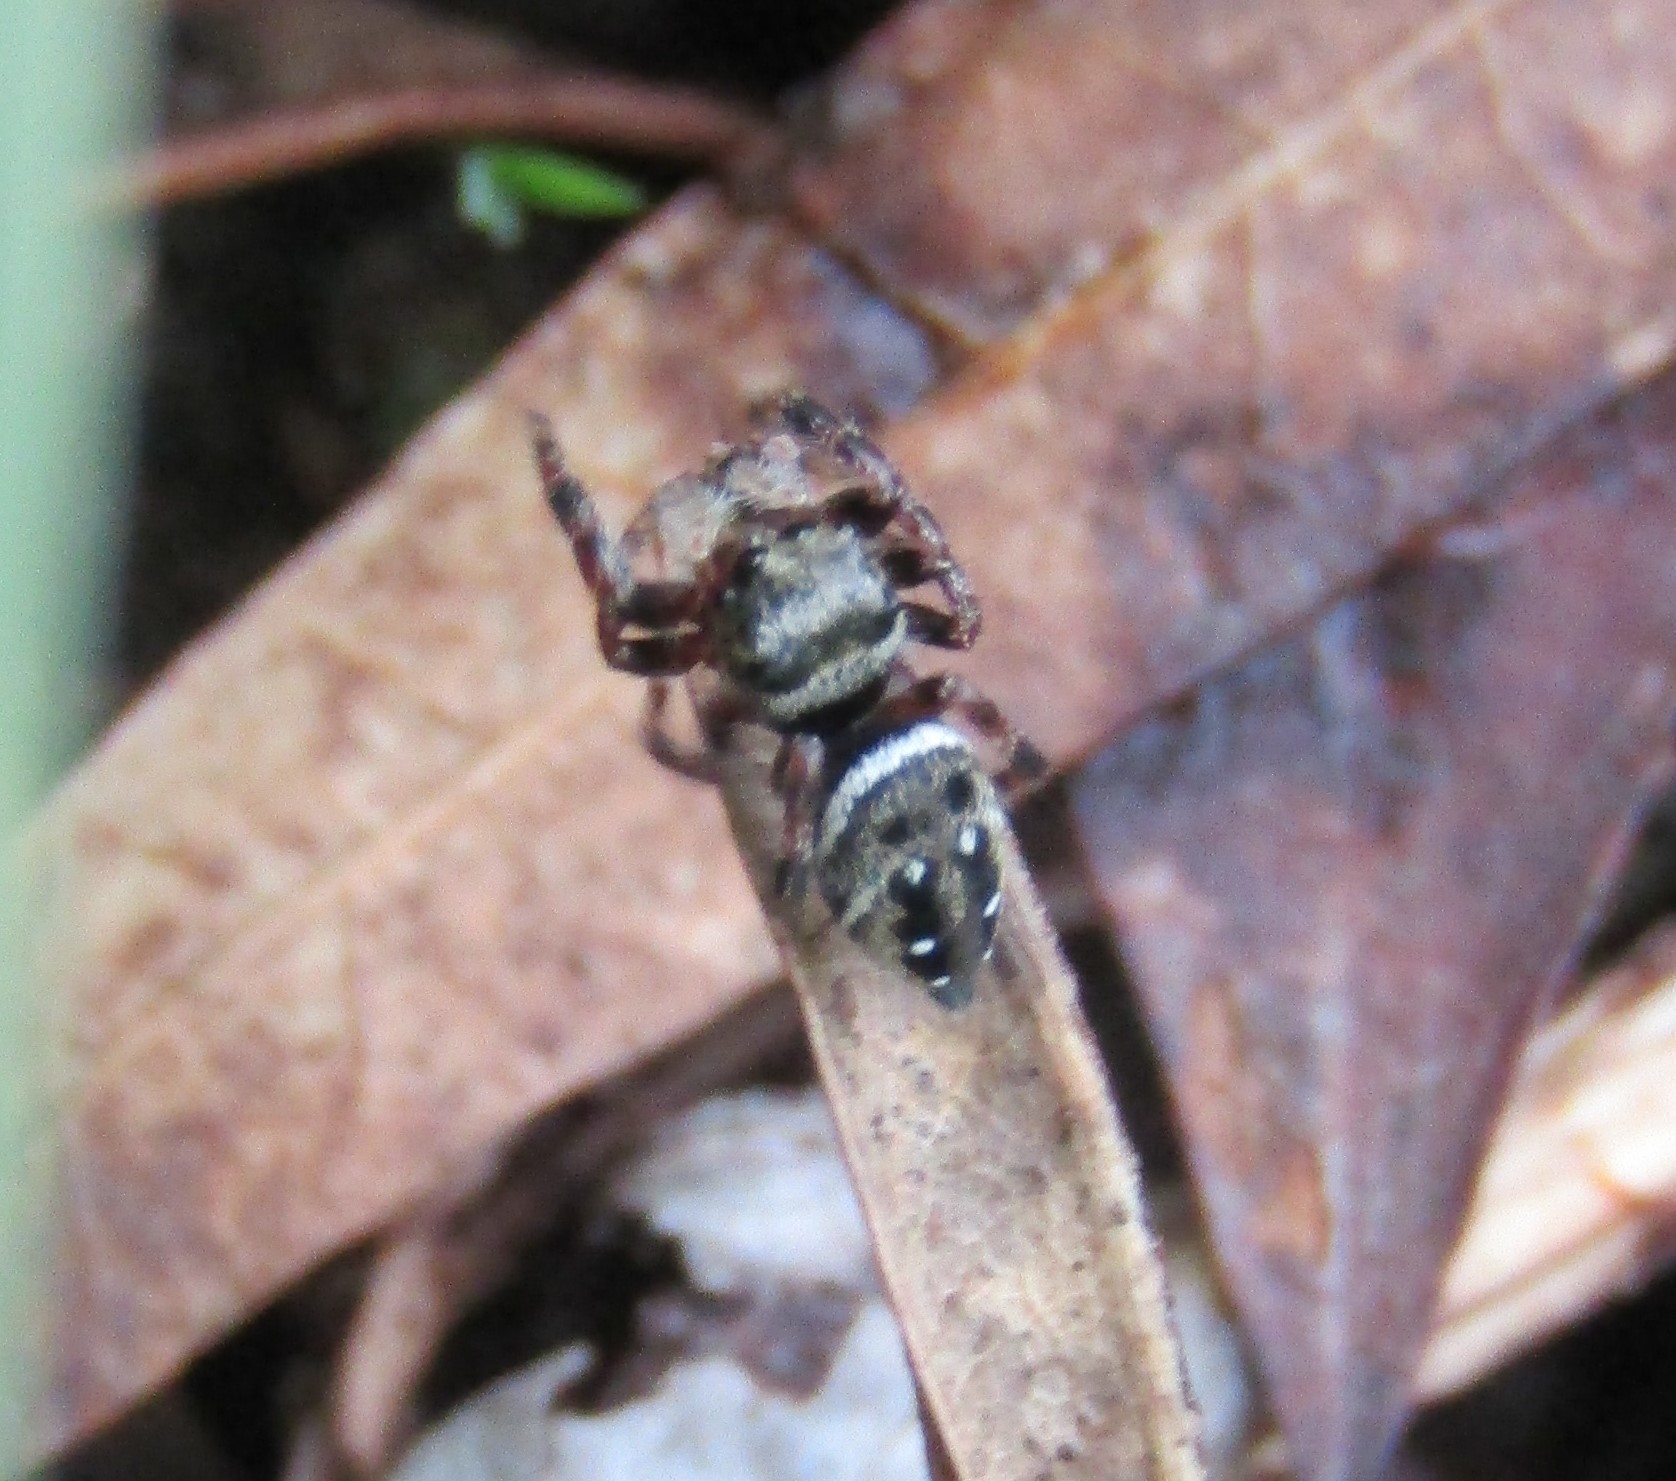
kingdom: Animalia
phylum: Arthropoda
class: Arachnida
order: Araneae
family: Salticidae
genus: Phidippus
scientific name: Phidippus clarus
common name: Brilliant jumping spider
